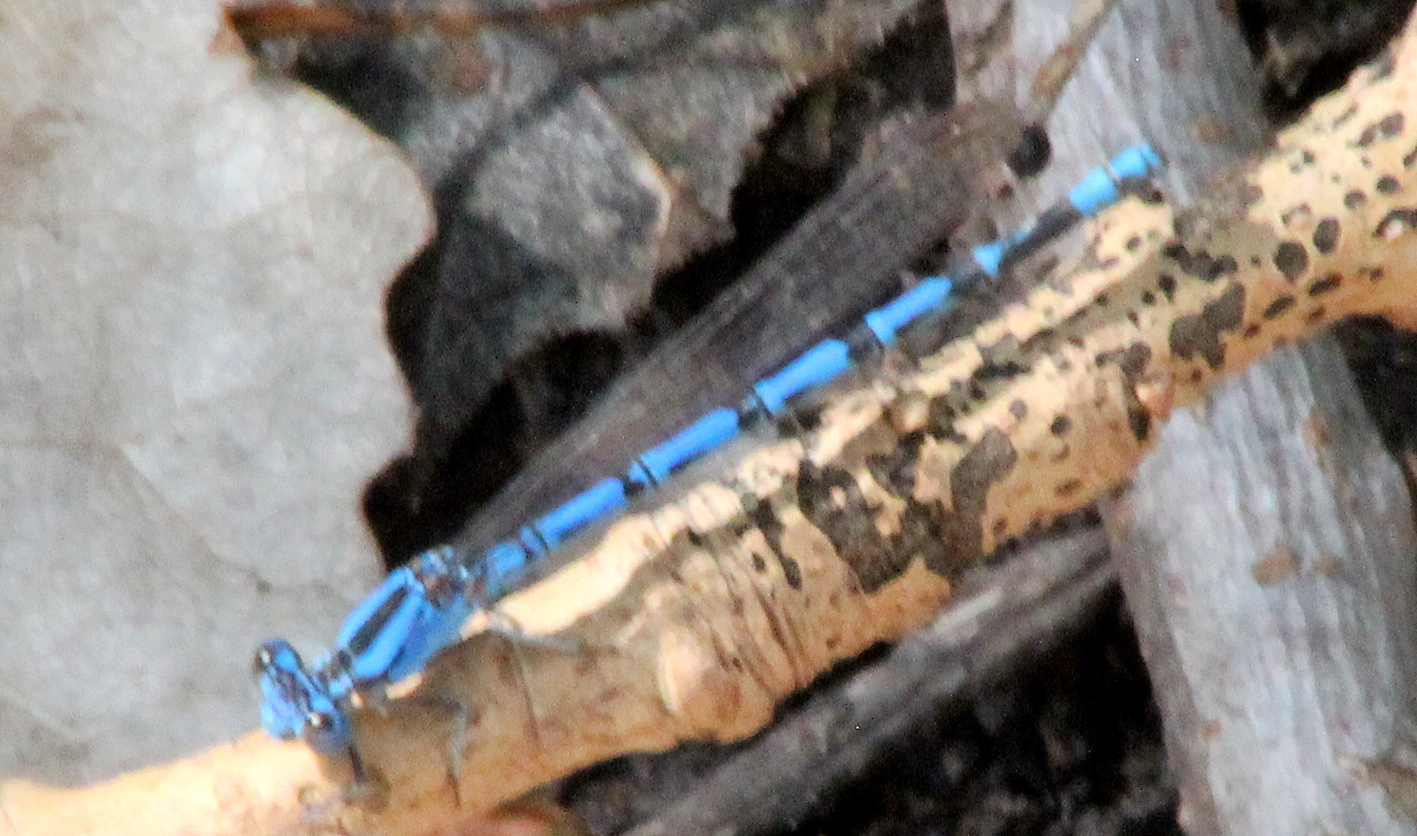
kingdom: Animalia
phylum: Arthropoda
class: Insecta
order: Odonata
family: Coenagrionidae
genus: Argia
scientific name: Argia funebris
